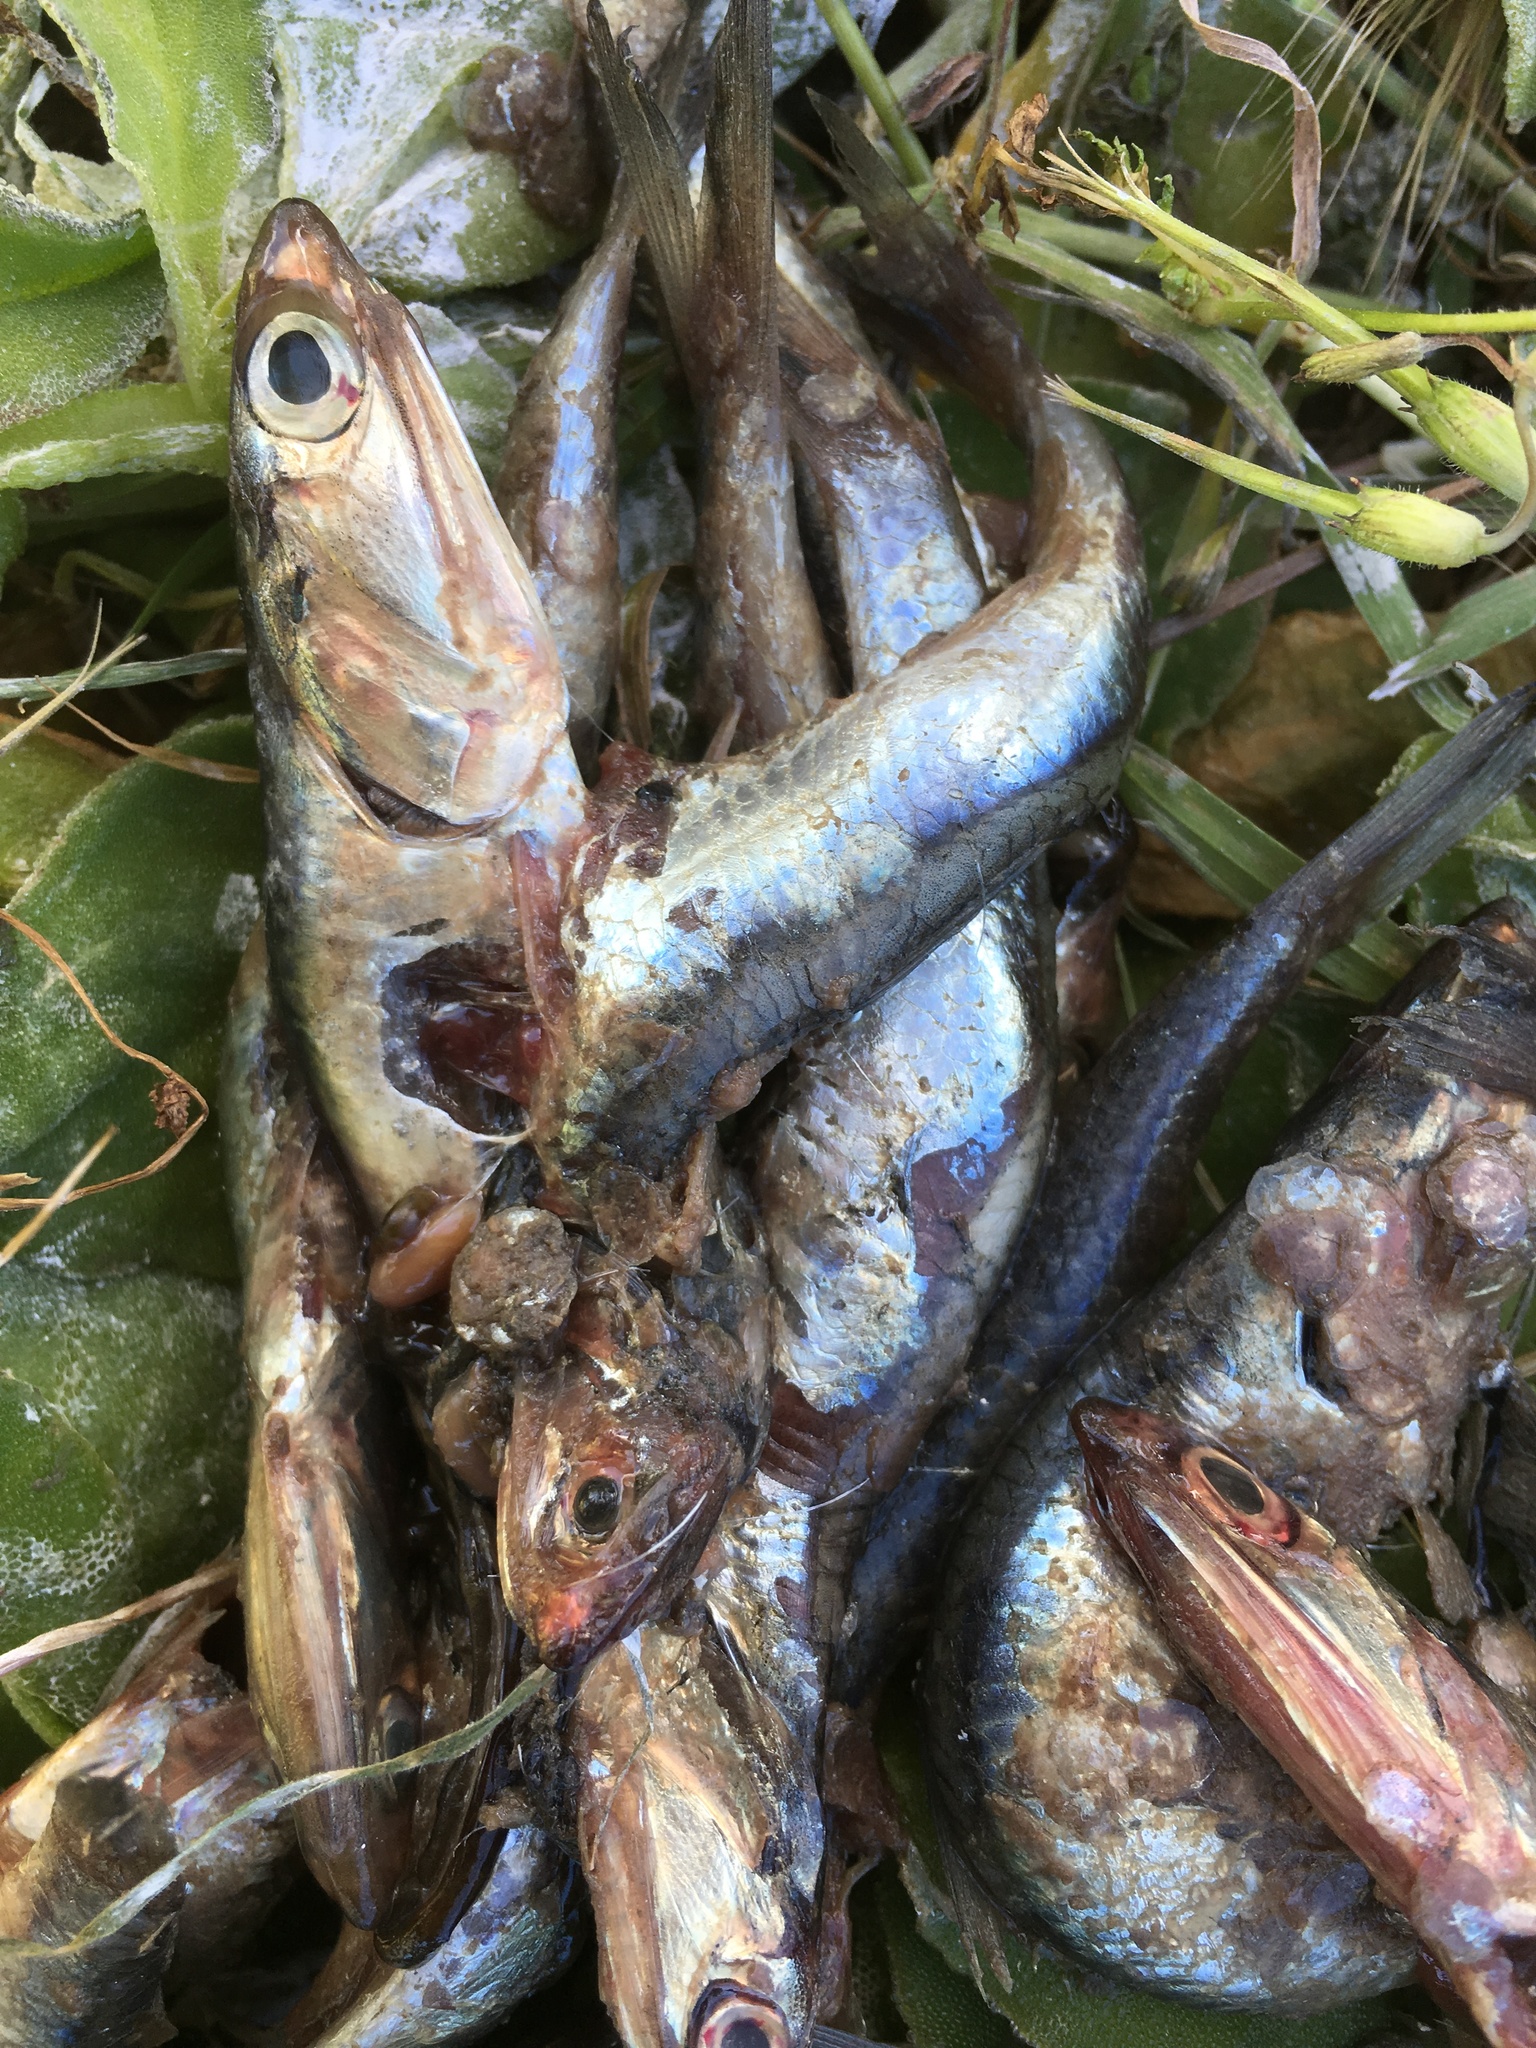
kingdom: Animalia
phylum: Chordata
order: Clupeiformes
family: Engraulidae
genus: Engraulis
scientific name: Engraulis mordax
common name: Northern anchovy
